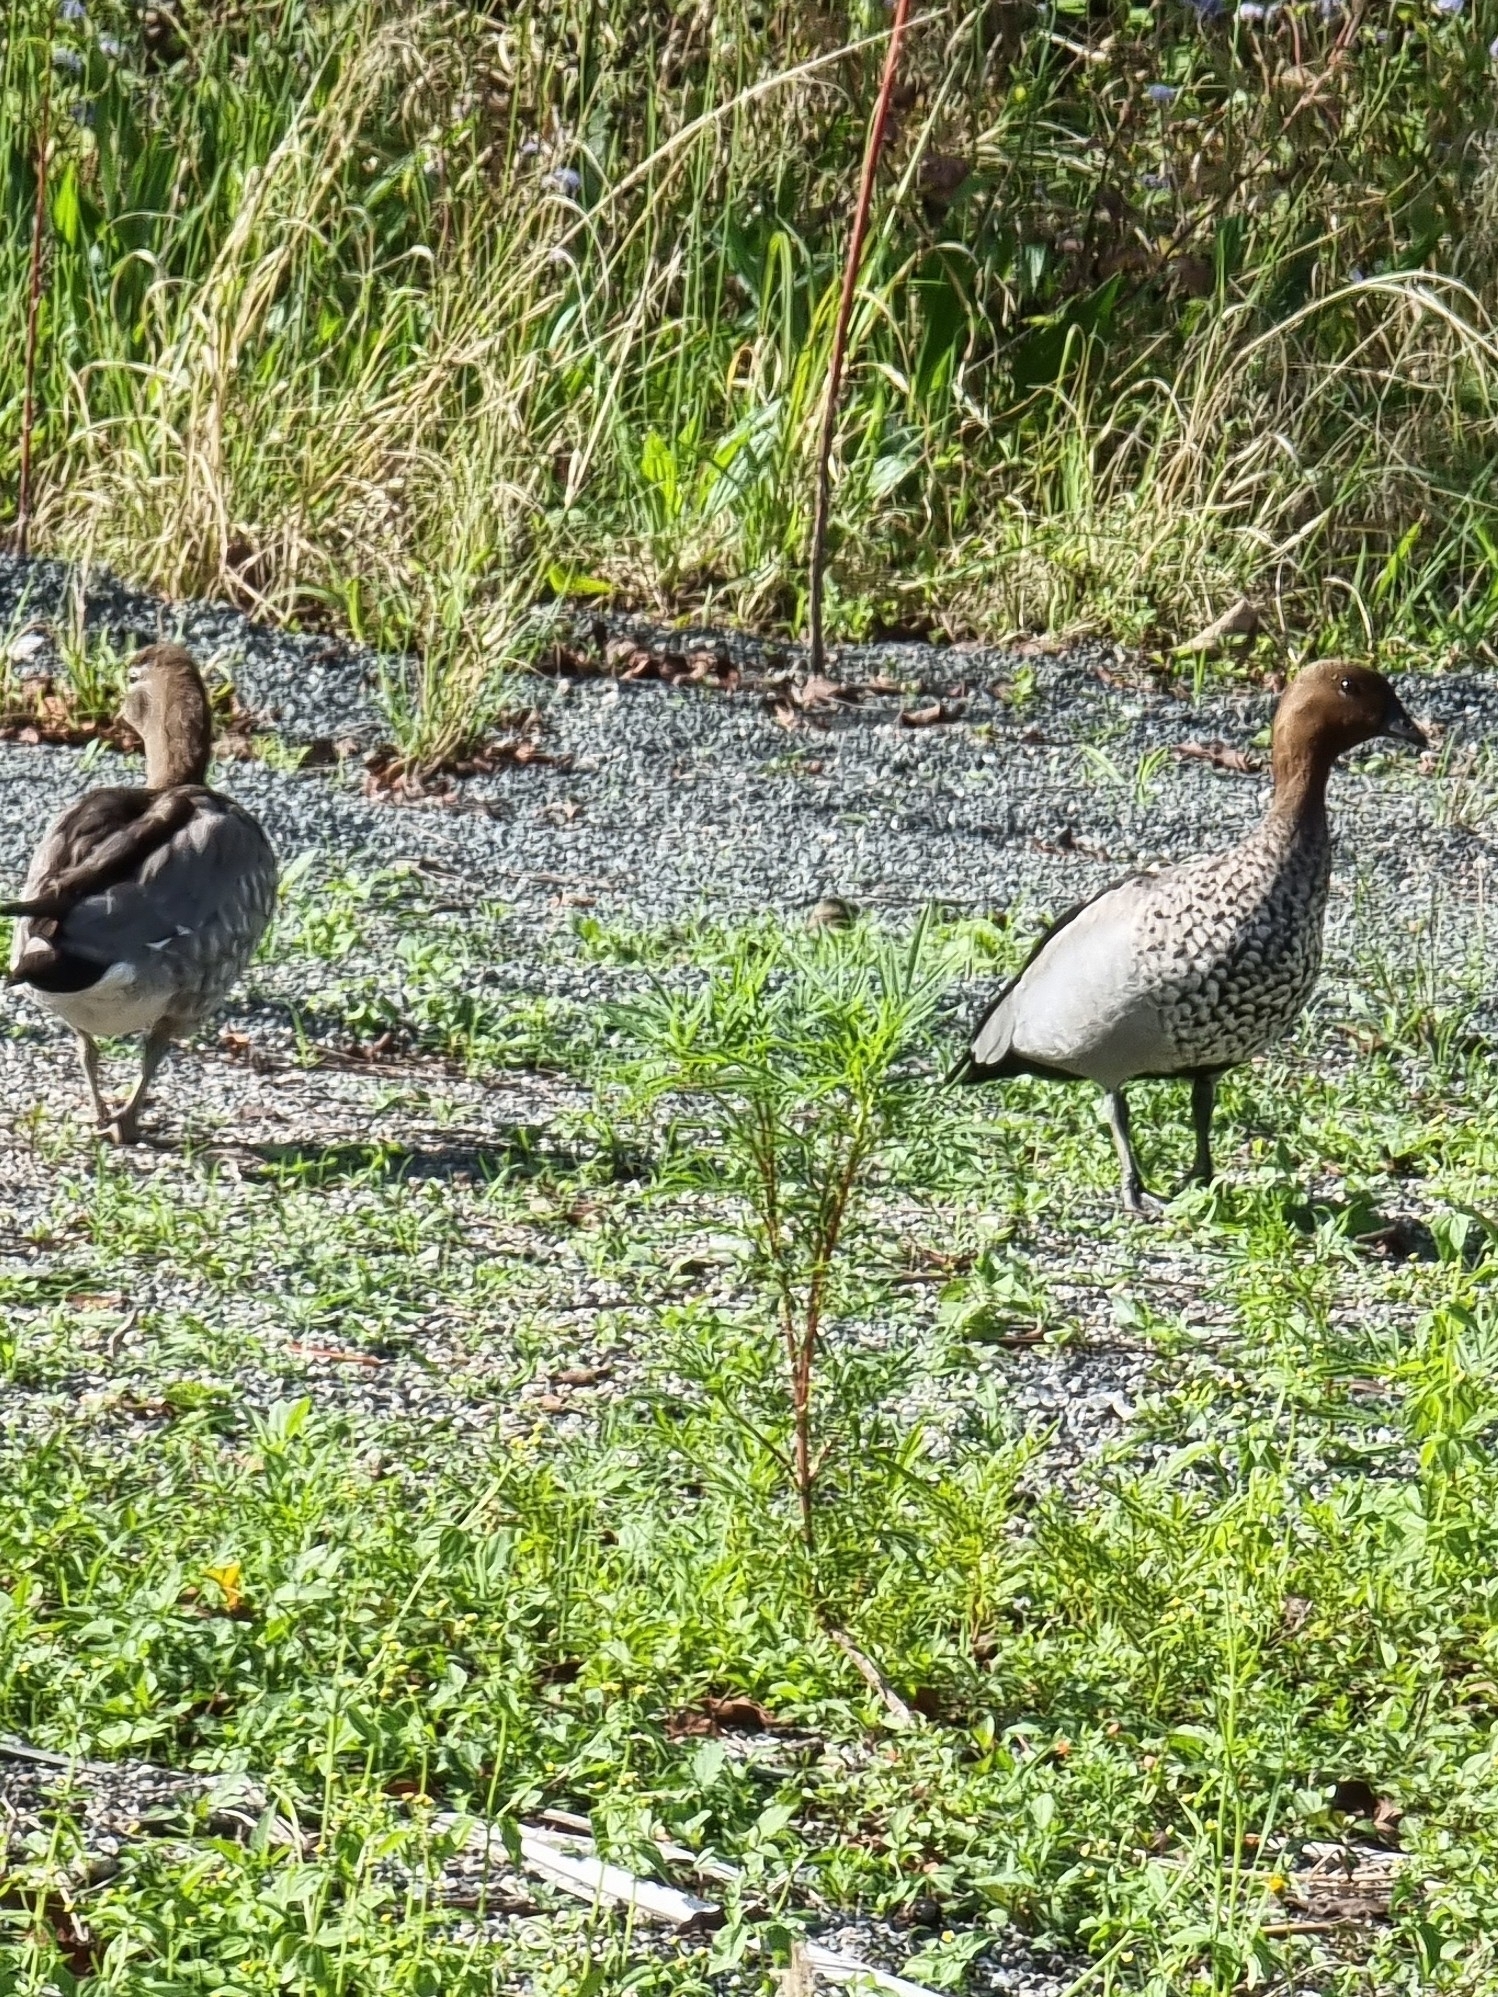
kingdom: Animalia
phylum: Chordata
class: Aves
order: Anseriformes
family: Anatidae
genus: Chenonetta
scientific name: Chenonetta jubata
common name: Maned duck
